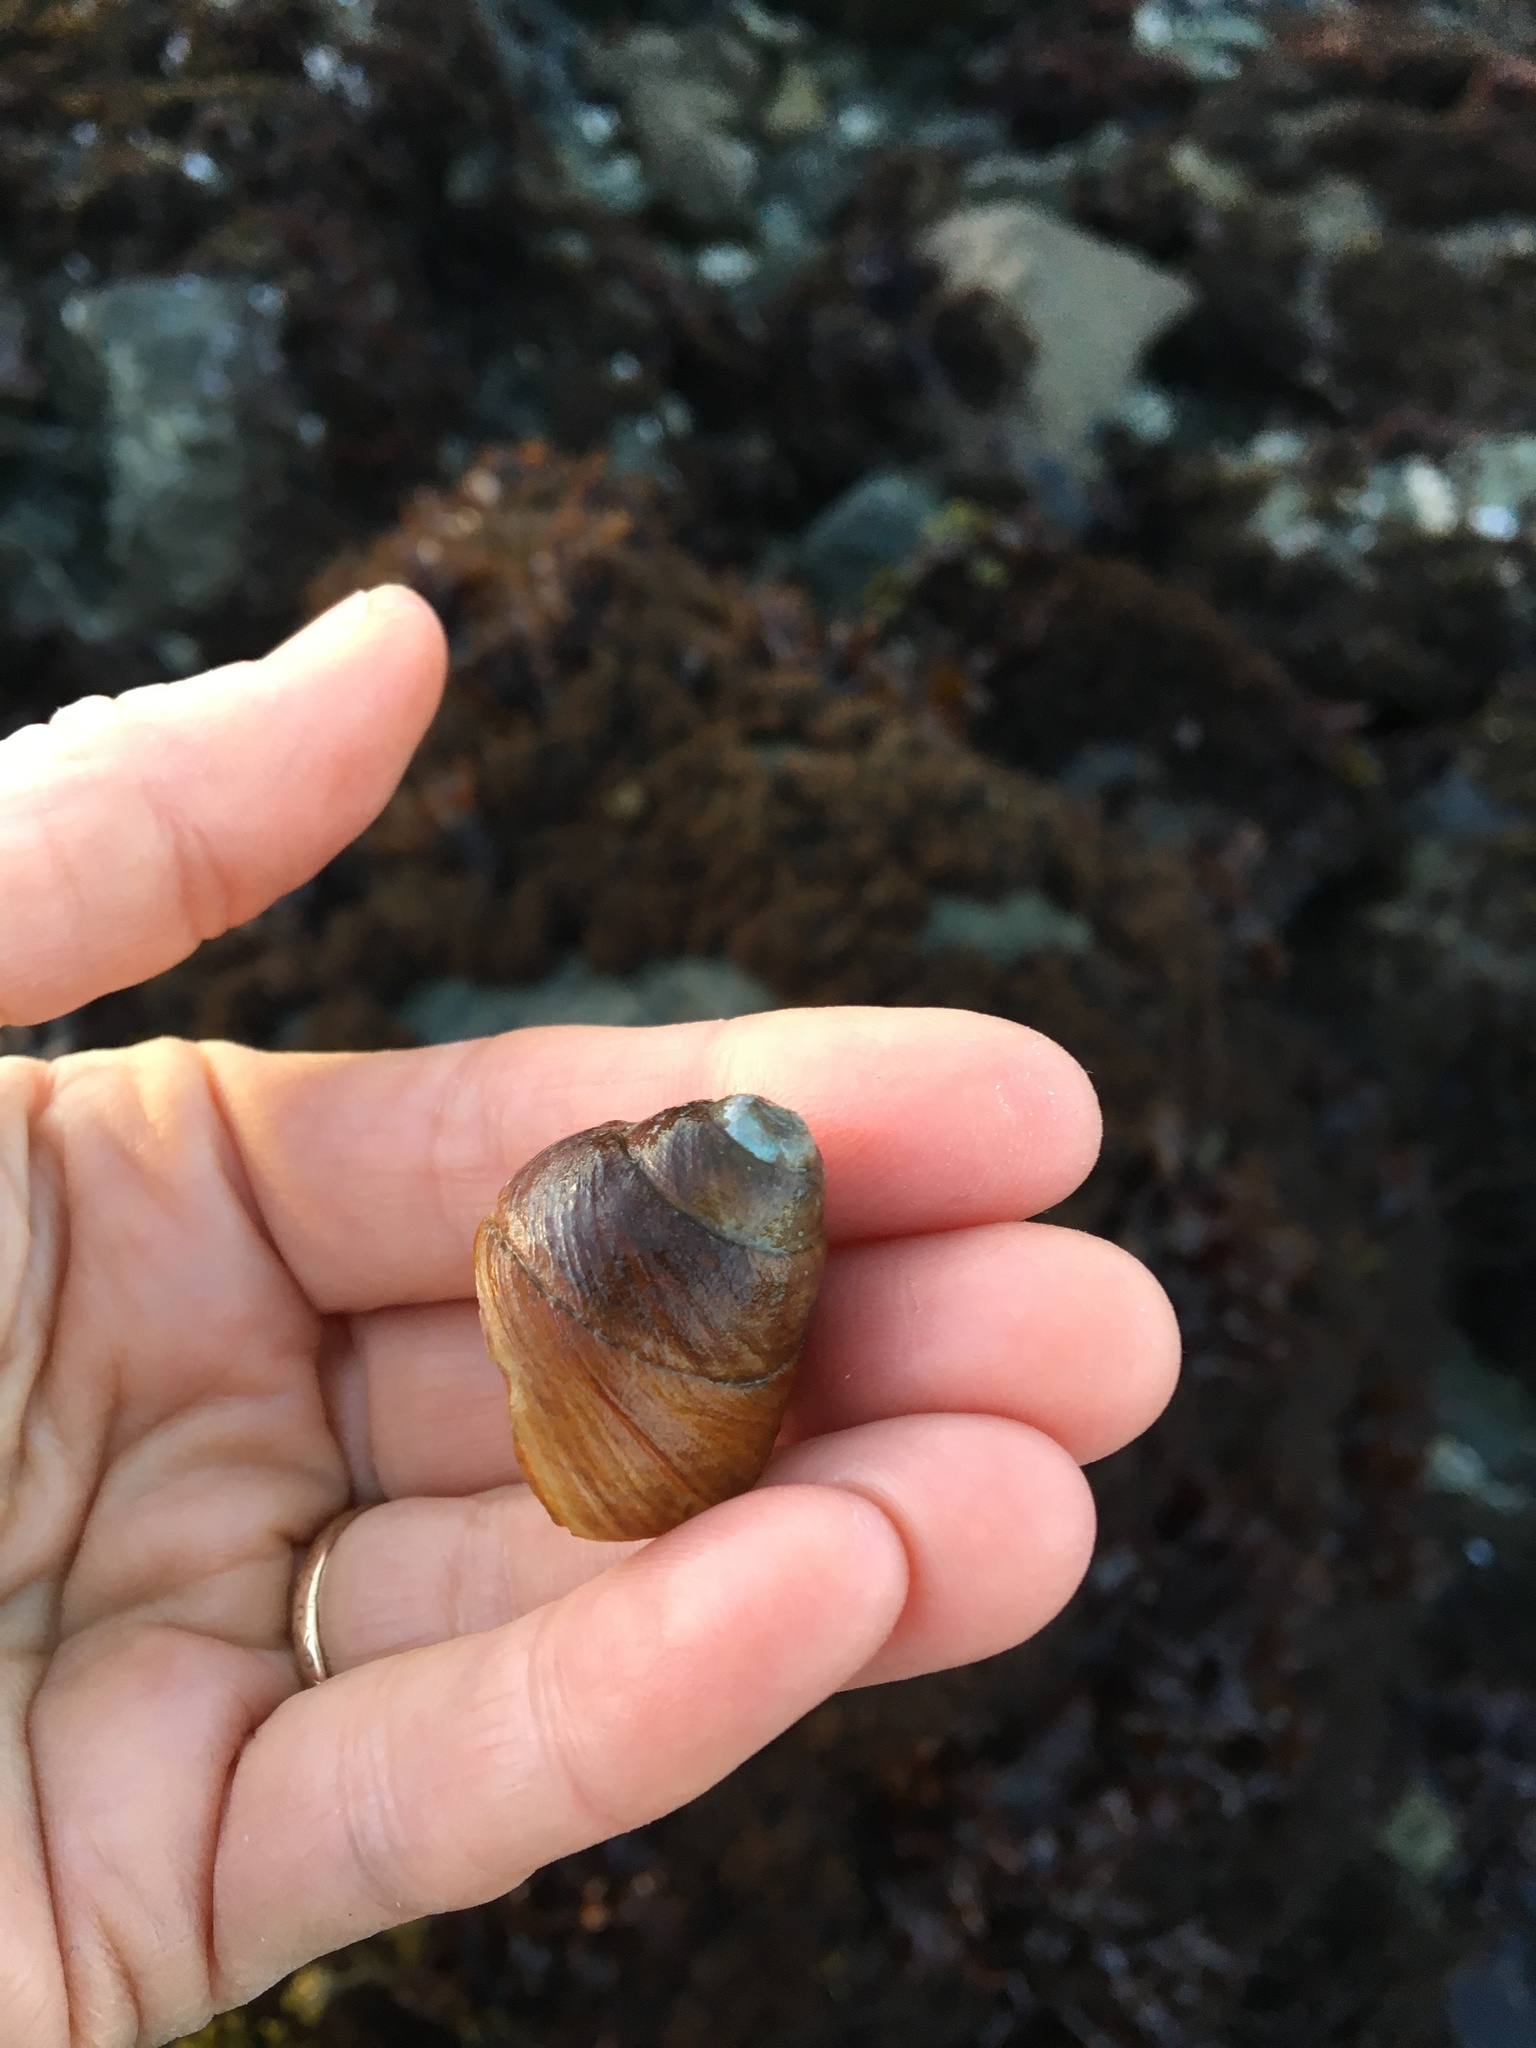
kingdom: Animalia
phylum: Mollusca
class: Gastropoda
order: Trochida
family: Tegulidae
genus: Tegula
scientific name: Tegula brunnea
